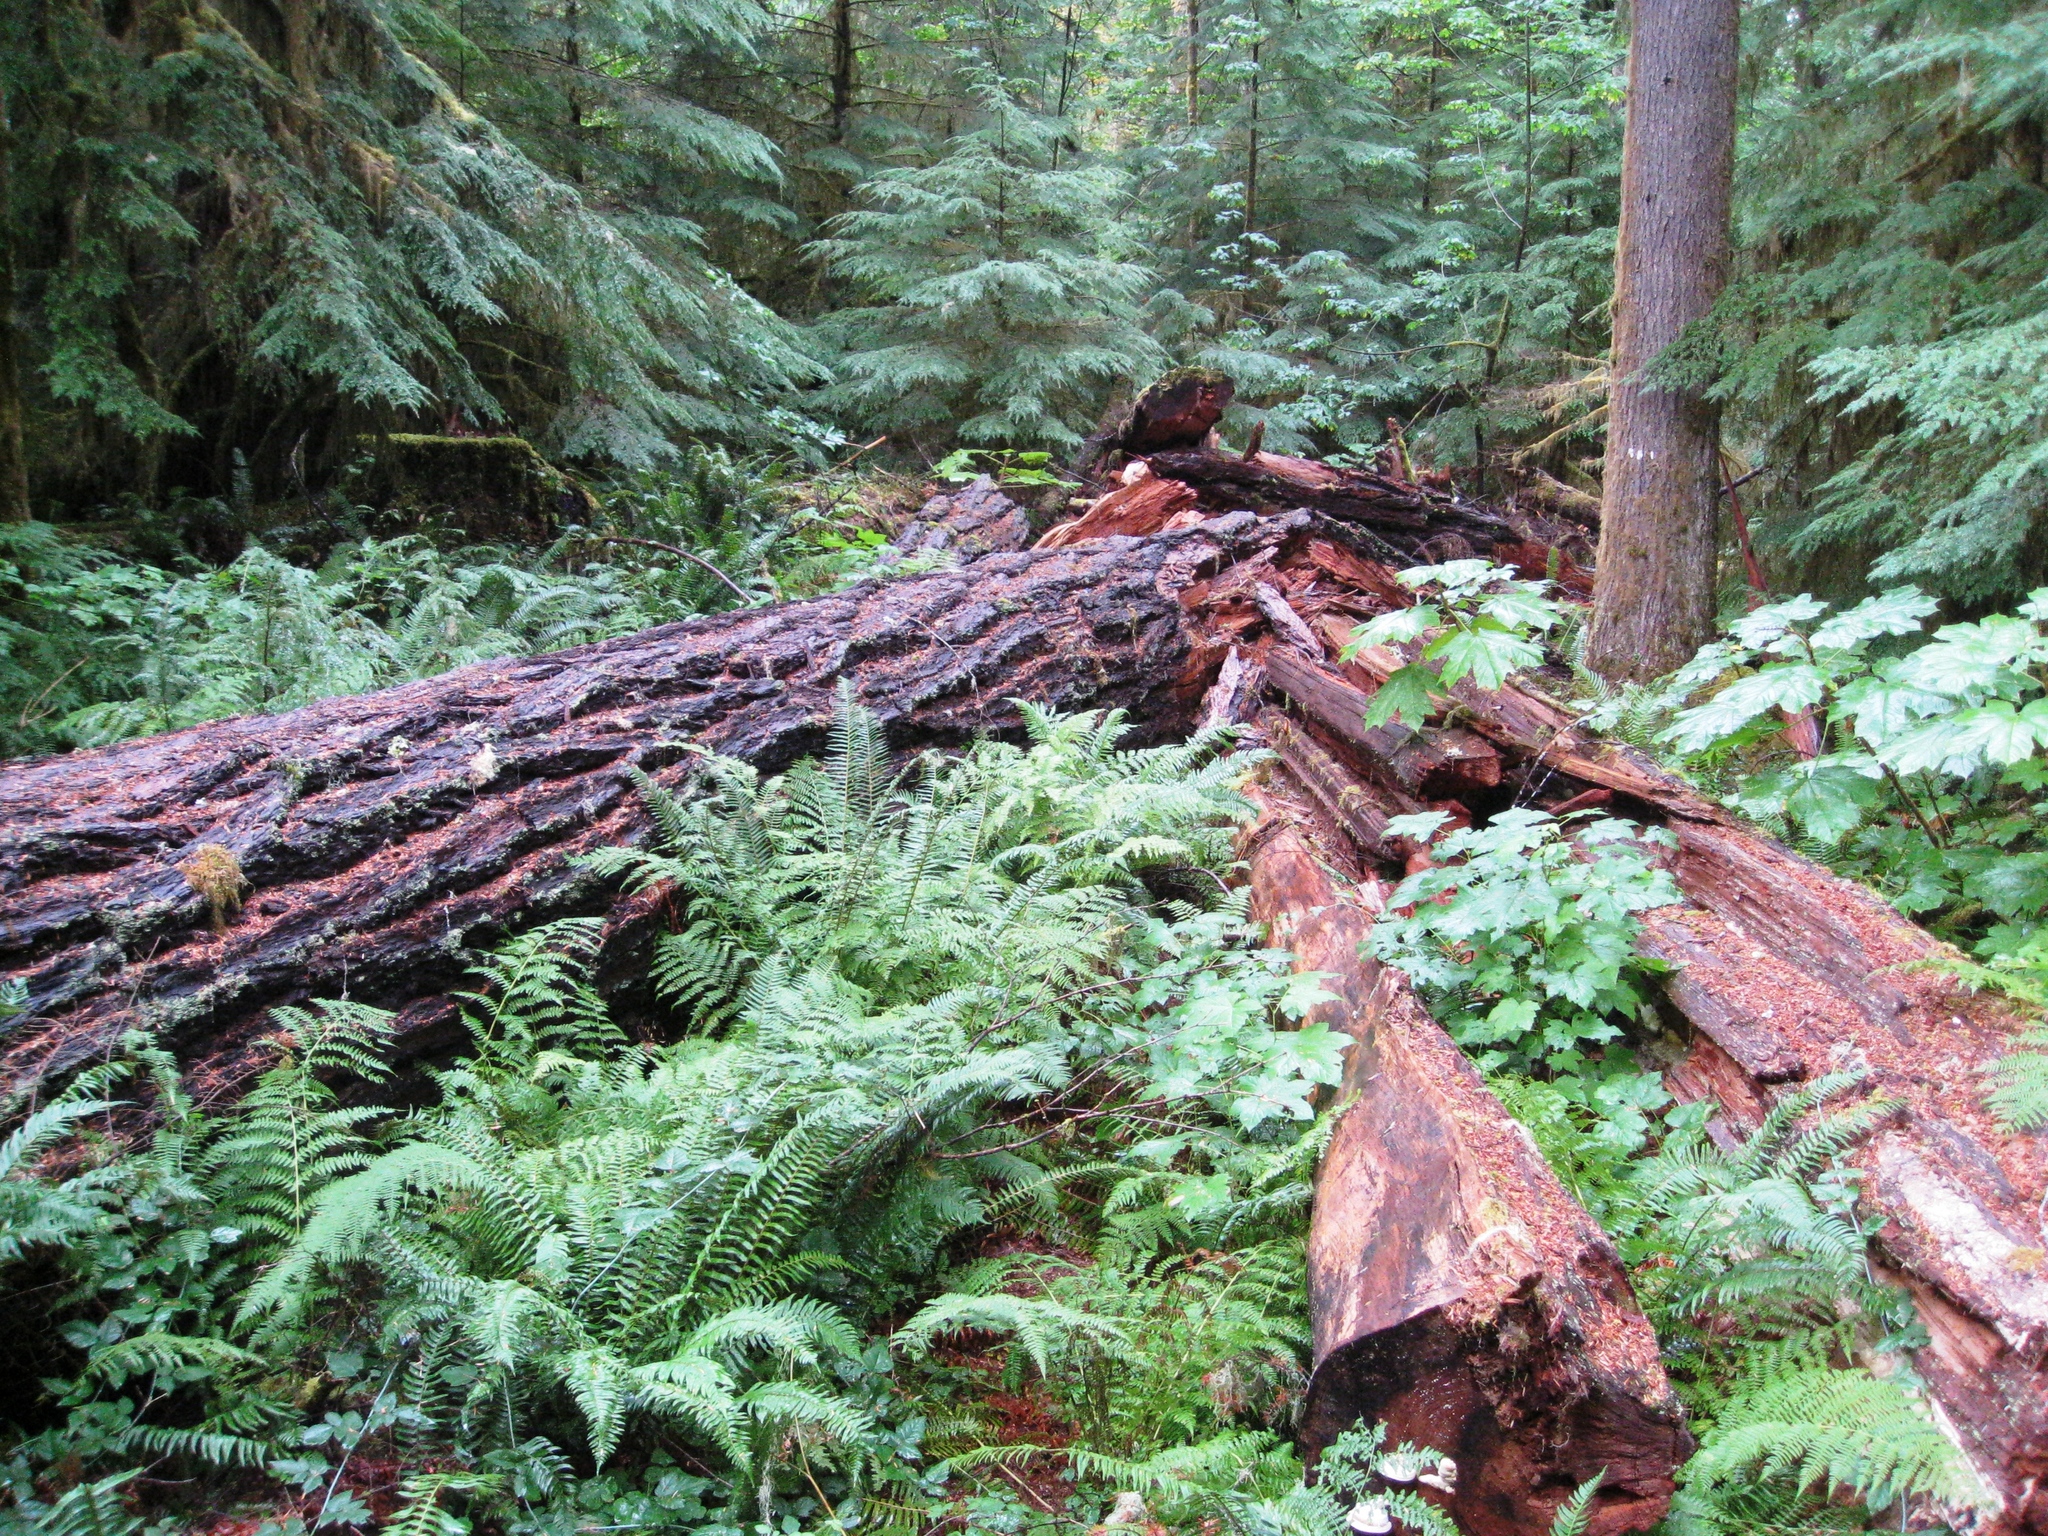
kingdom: Plantae
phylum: Tracheophyta
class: Pinopsida
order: Pinales
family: Pinaceae
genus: Pseudotsuga
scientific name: Pseudotsuga menziesii
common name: Douglas fir
